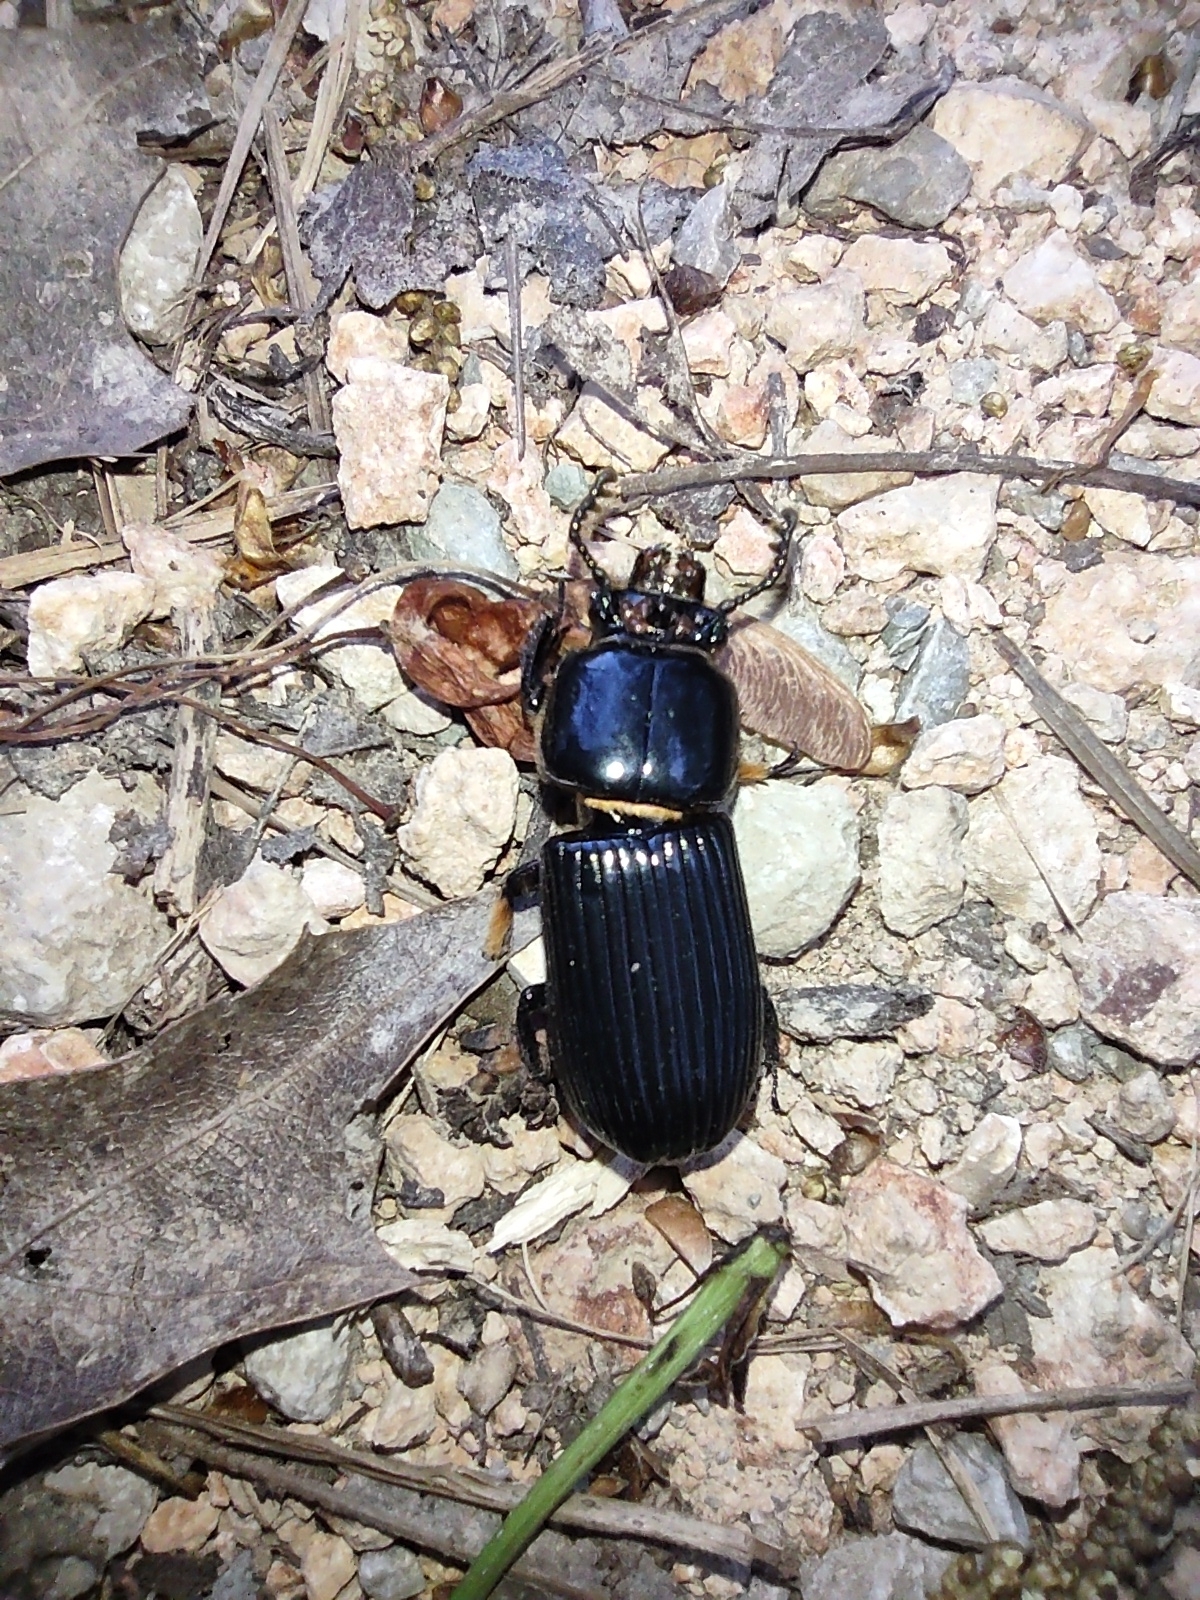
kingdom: Animalia
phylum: Arthropoda
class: Insecta
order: Coleoptera
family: Passalidae
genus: Odontotaenius
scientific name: Odontotaenius disjunctus
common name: Patent leather beetle
